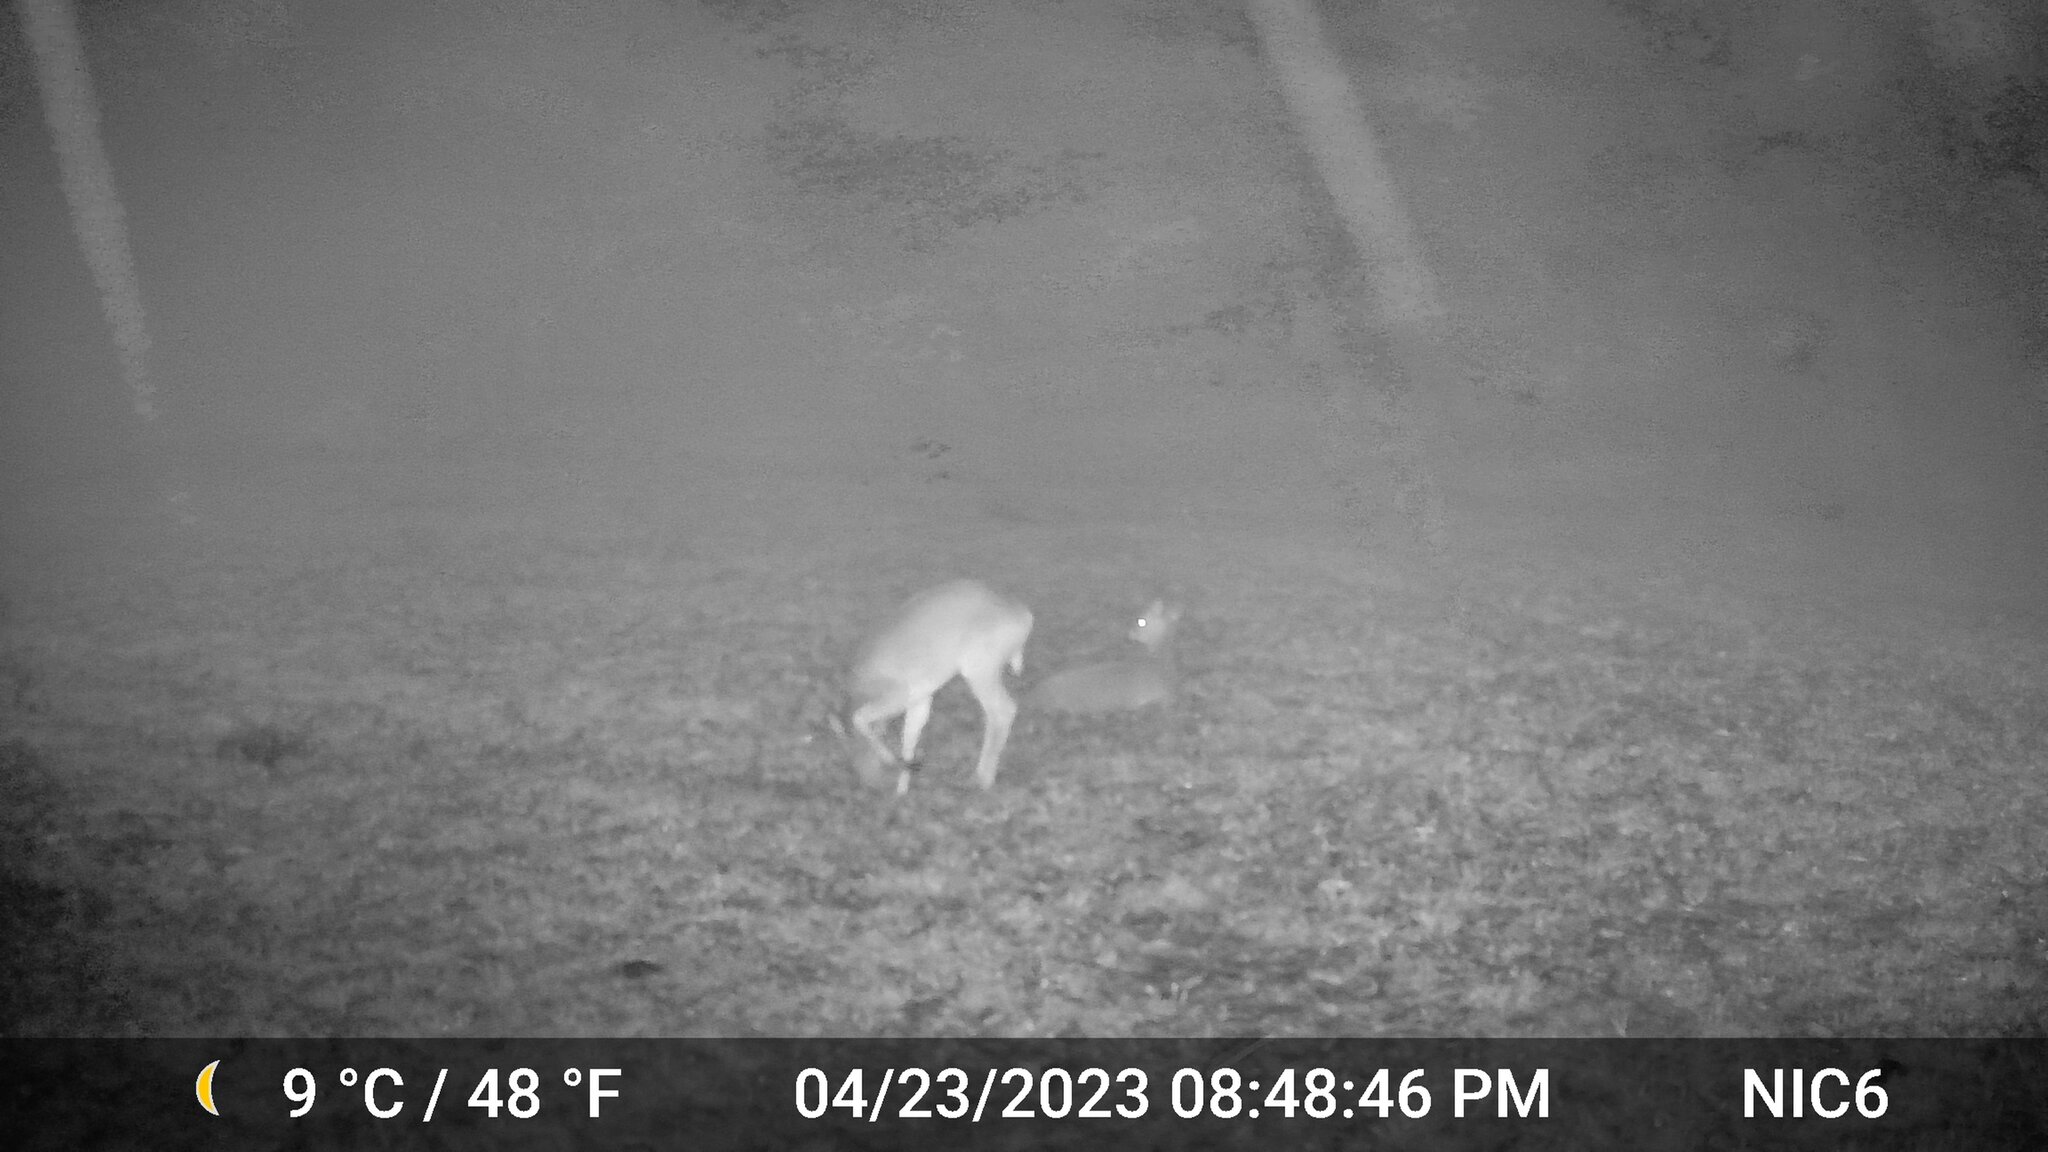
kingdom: Animalia
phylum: Chordata
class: Mammalia
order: Artiodactyla
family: Cervidae
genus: Odocoileus
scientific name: Odocoileus virginianus
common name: White-tailed deer
